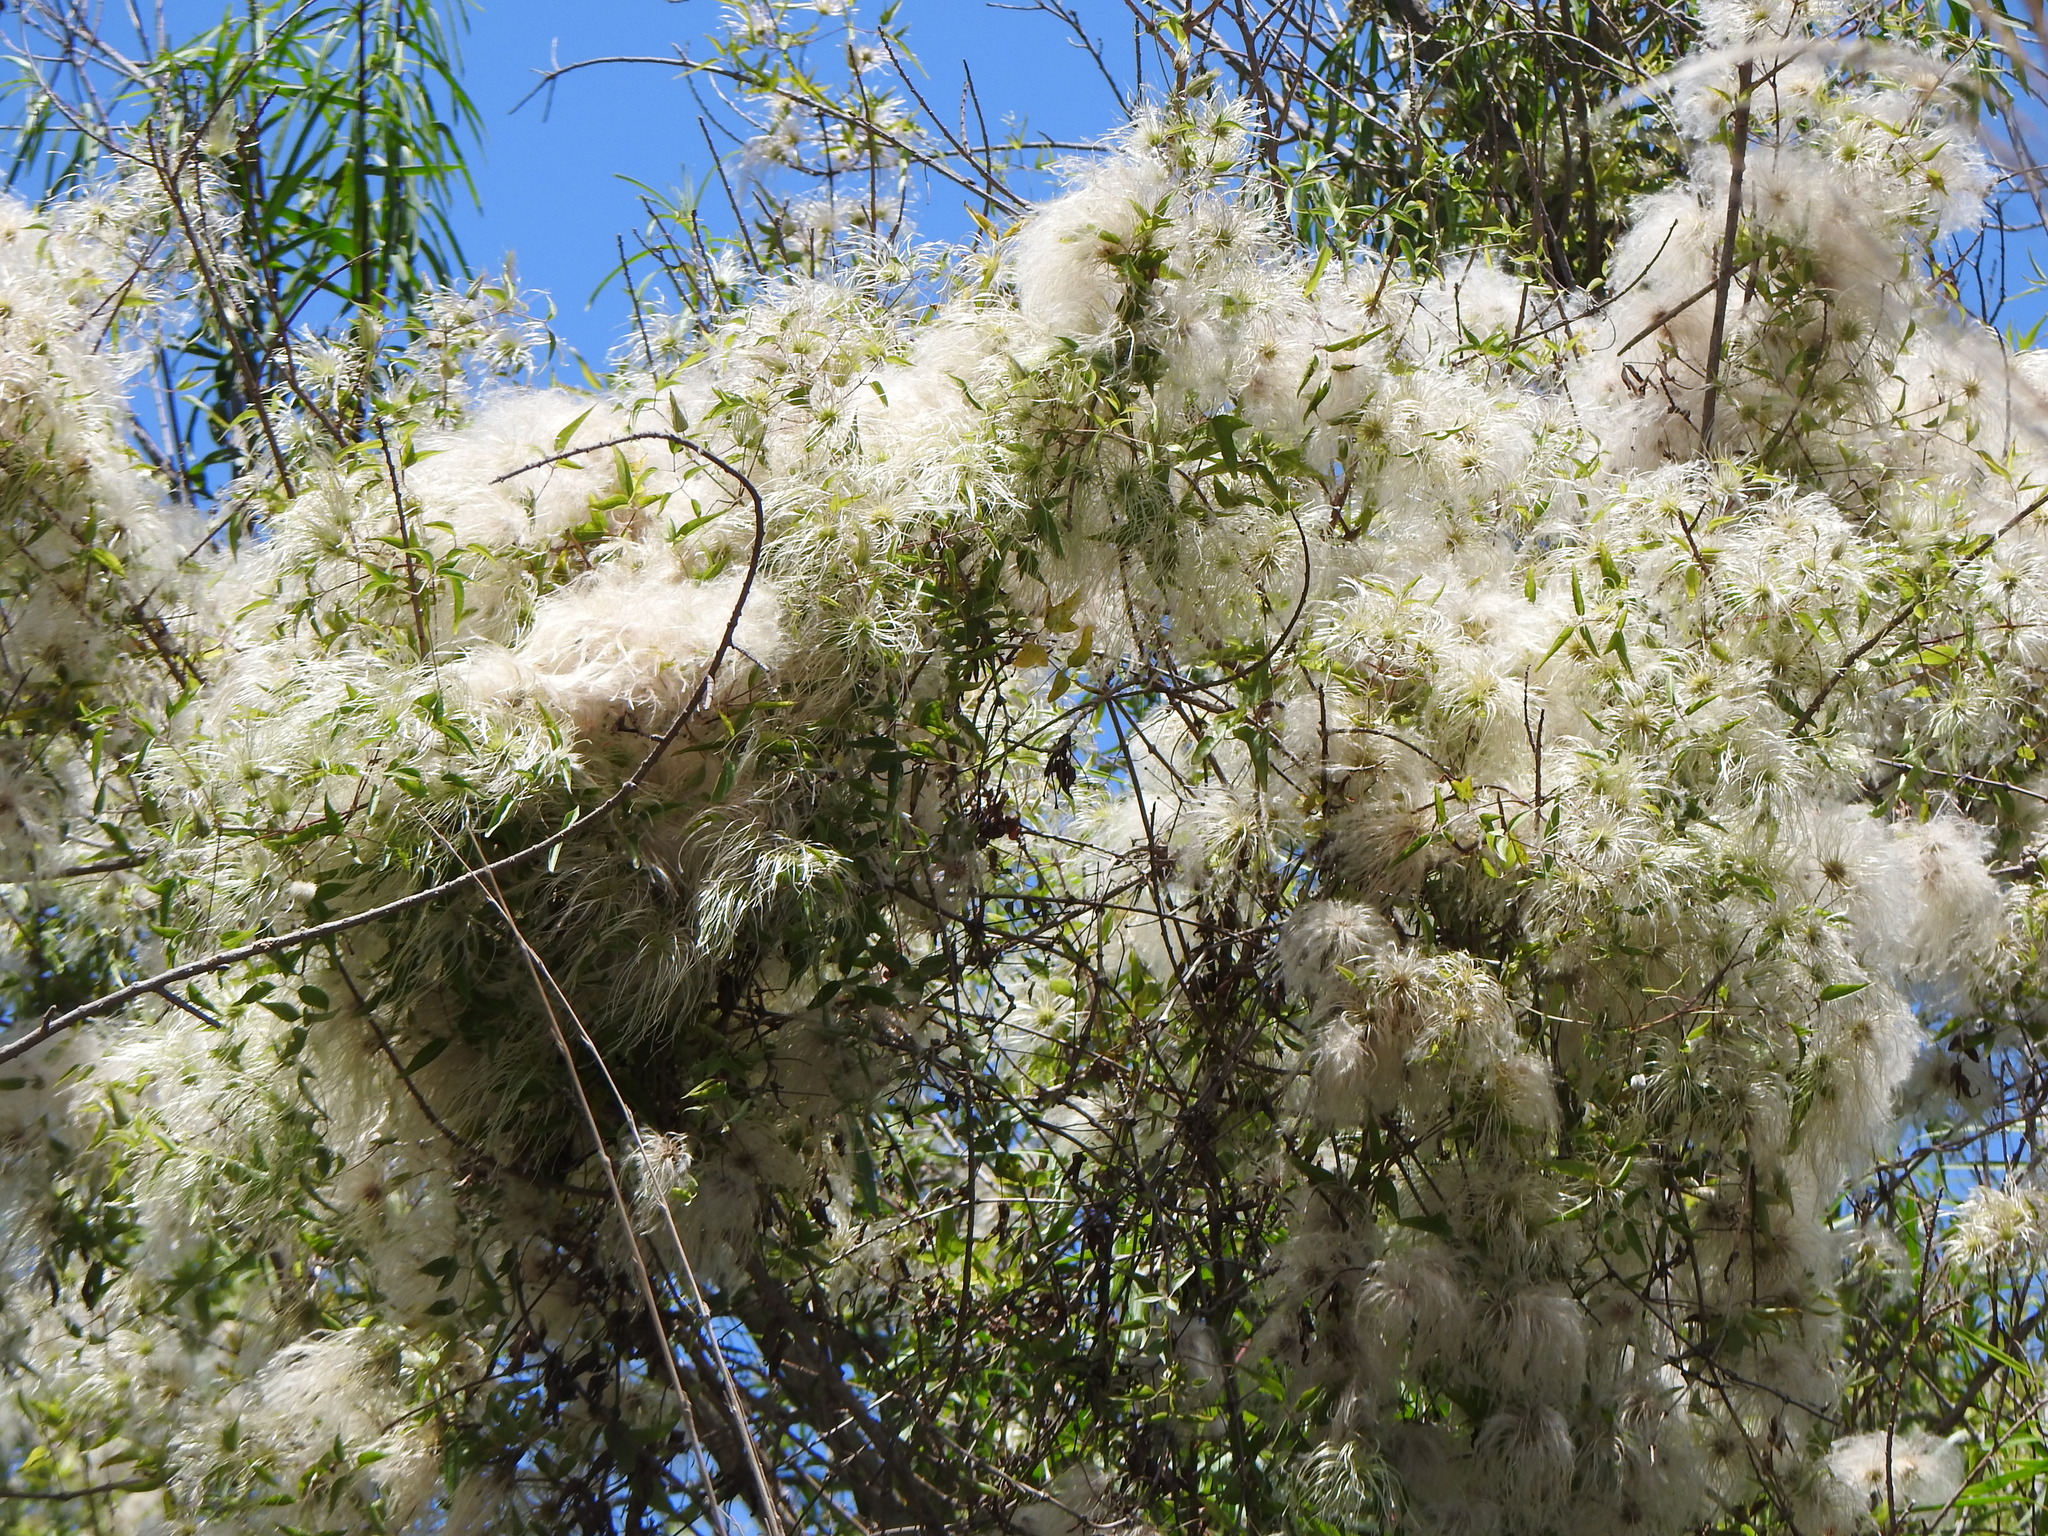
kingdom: Plantae
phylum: Tracheophyta
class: Magnoliopsida
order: Ranunculales
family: Ranunculaceae
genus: Clematis
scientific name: Clematis montevidensis
